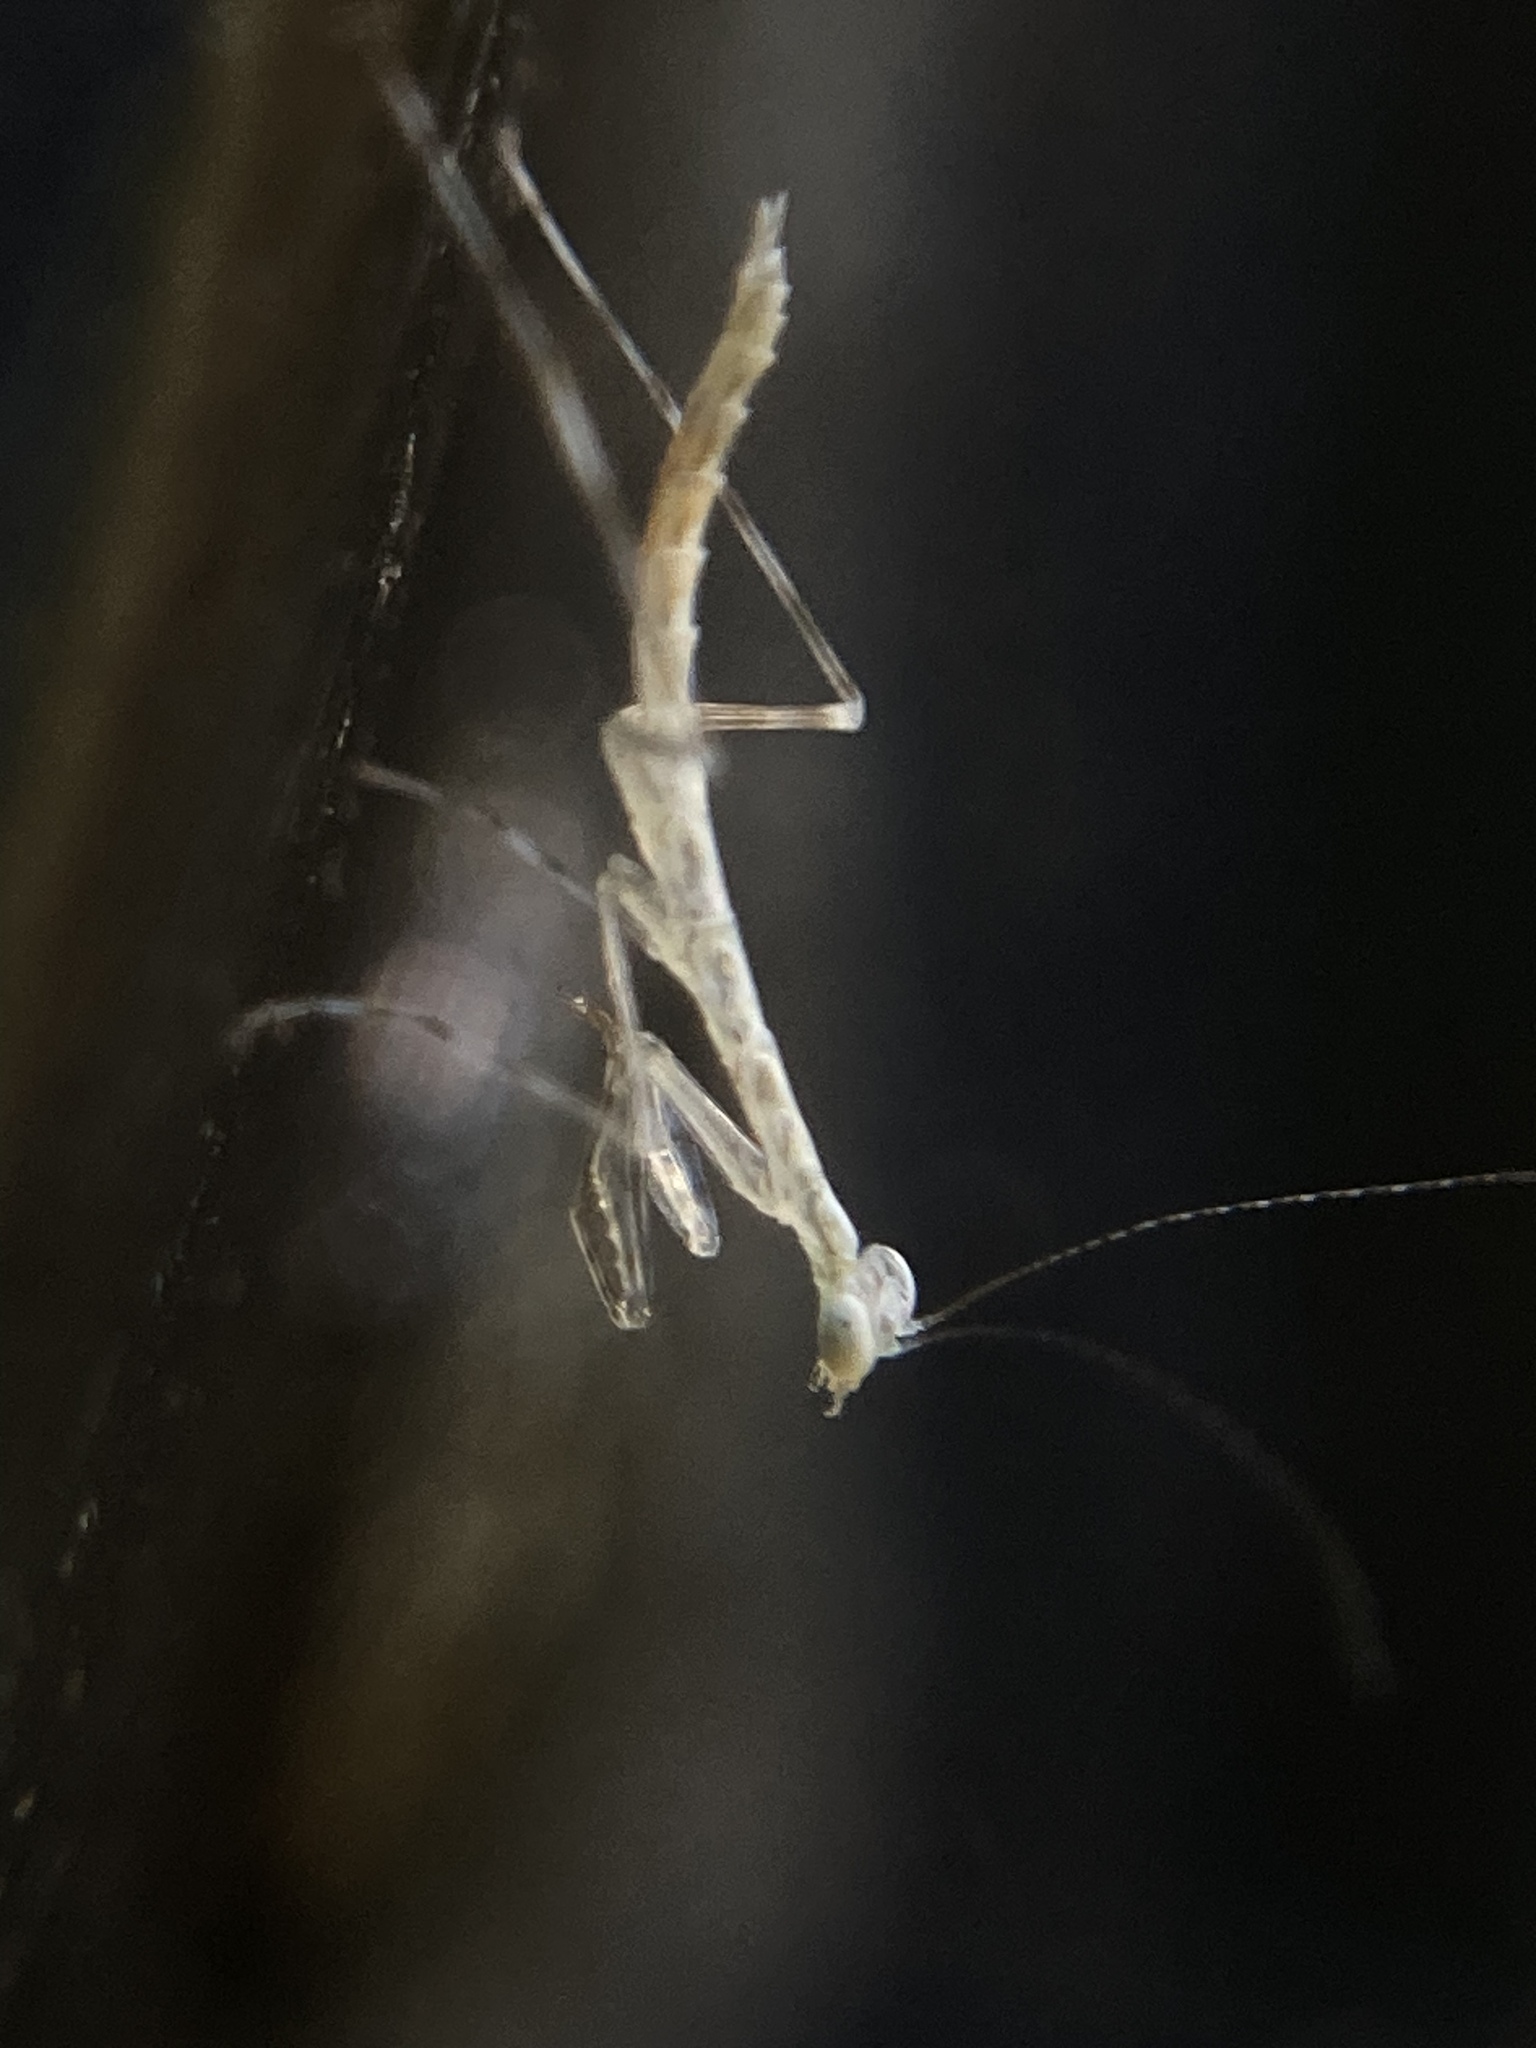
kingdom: Animalia
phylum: Arthropoda
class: Insecta
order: Mantodea
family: Nanomantidae
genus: Kongobatha
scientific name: Kongobatha diademata
